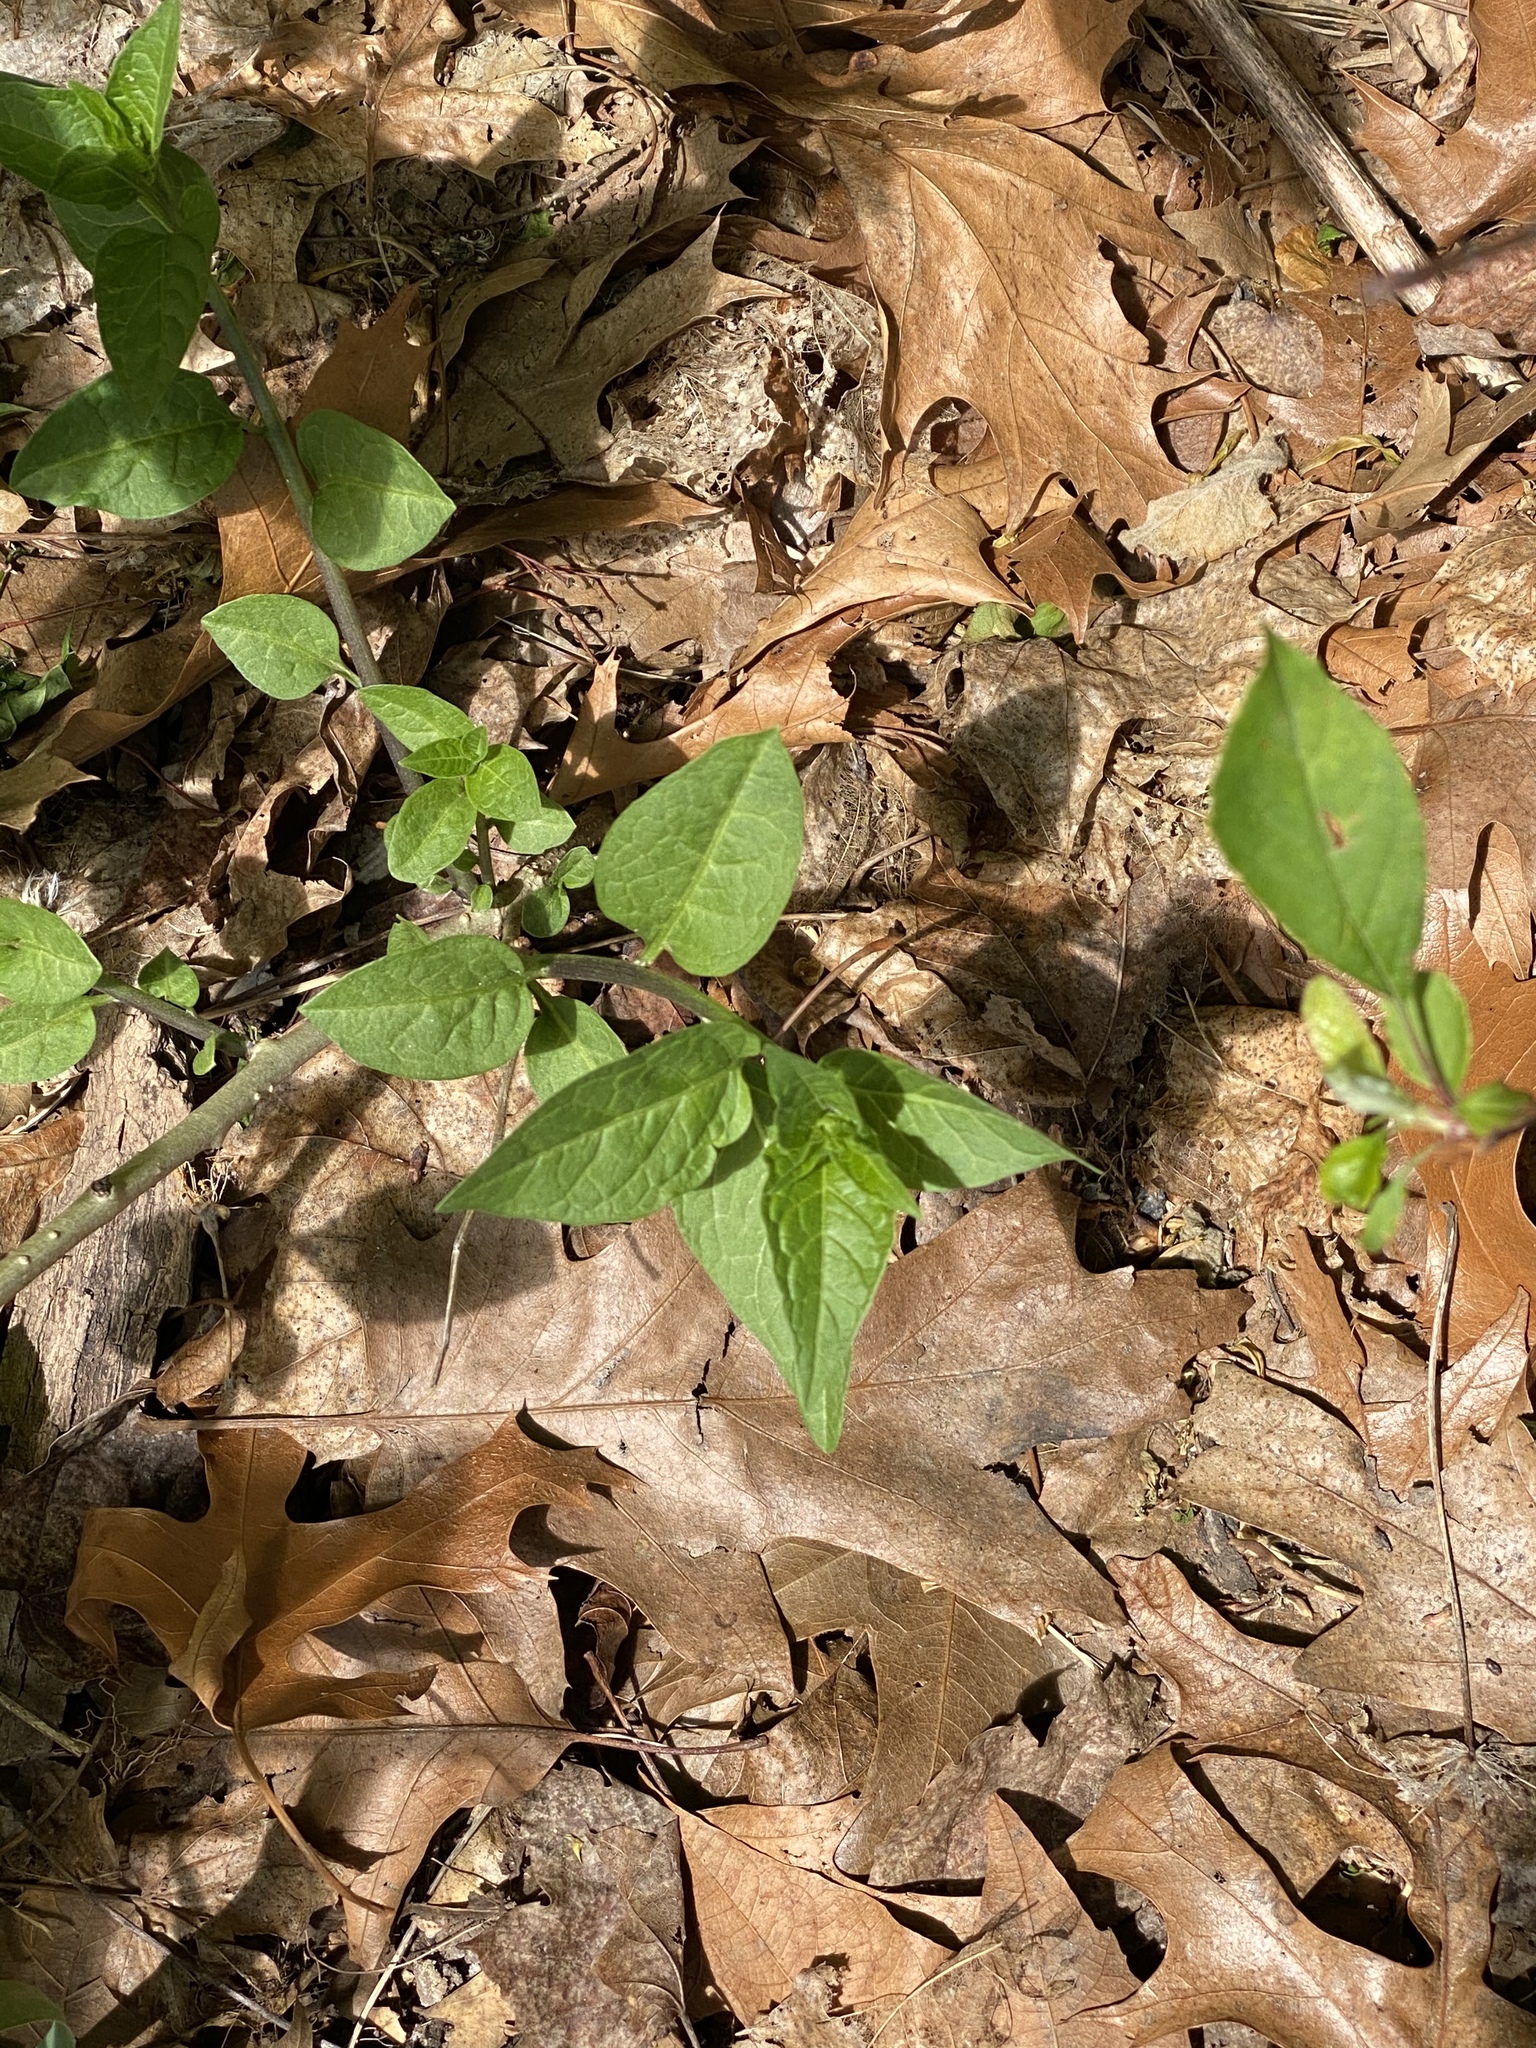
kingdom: Plantae
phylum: Tracheophyta
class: Magnoliopsida
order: Solanales
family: Solanaceae
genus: Solanum
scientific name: Solanum dulcamara
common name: Climbing nightshade
